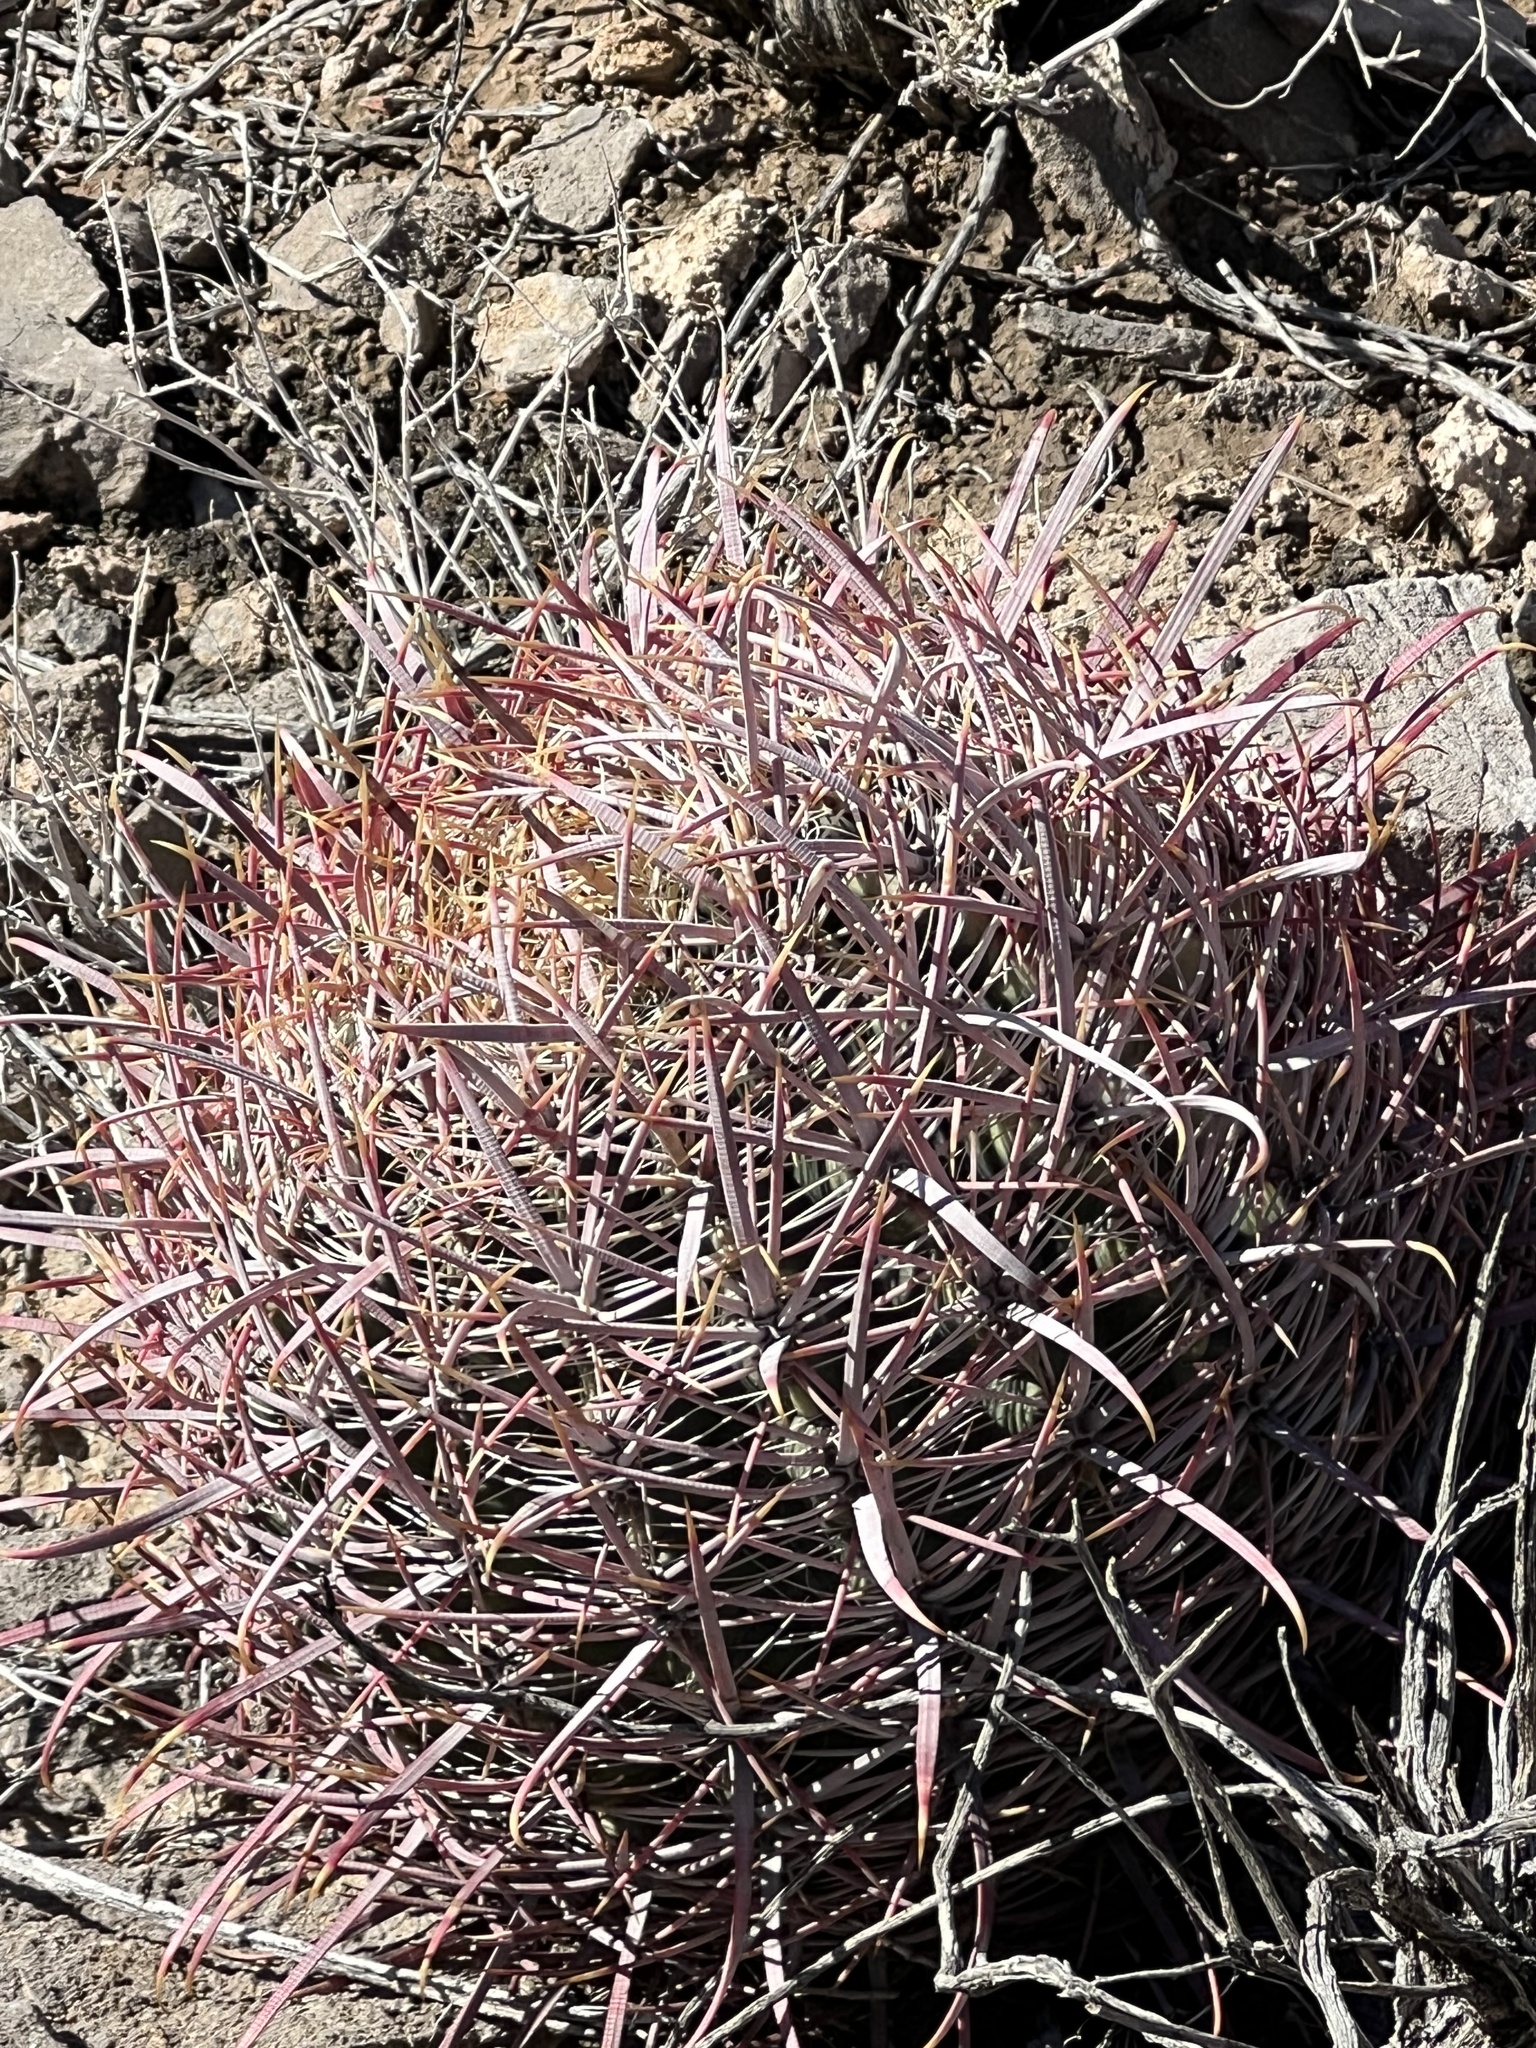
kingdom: Plantae
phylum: Tracheophyta
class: Magnoliopsida
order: Caryophyllales
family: Cactaceae
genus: Ferocactus
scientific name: Ferocactus cylindraceus
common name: California barrel cactus
